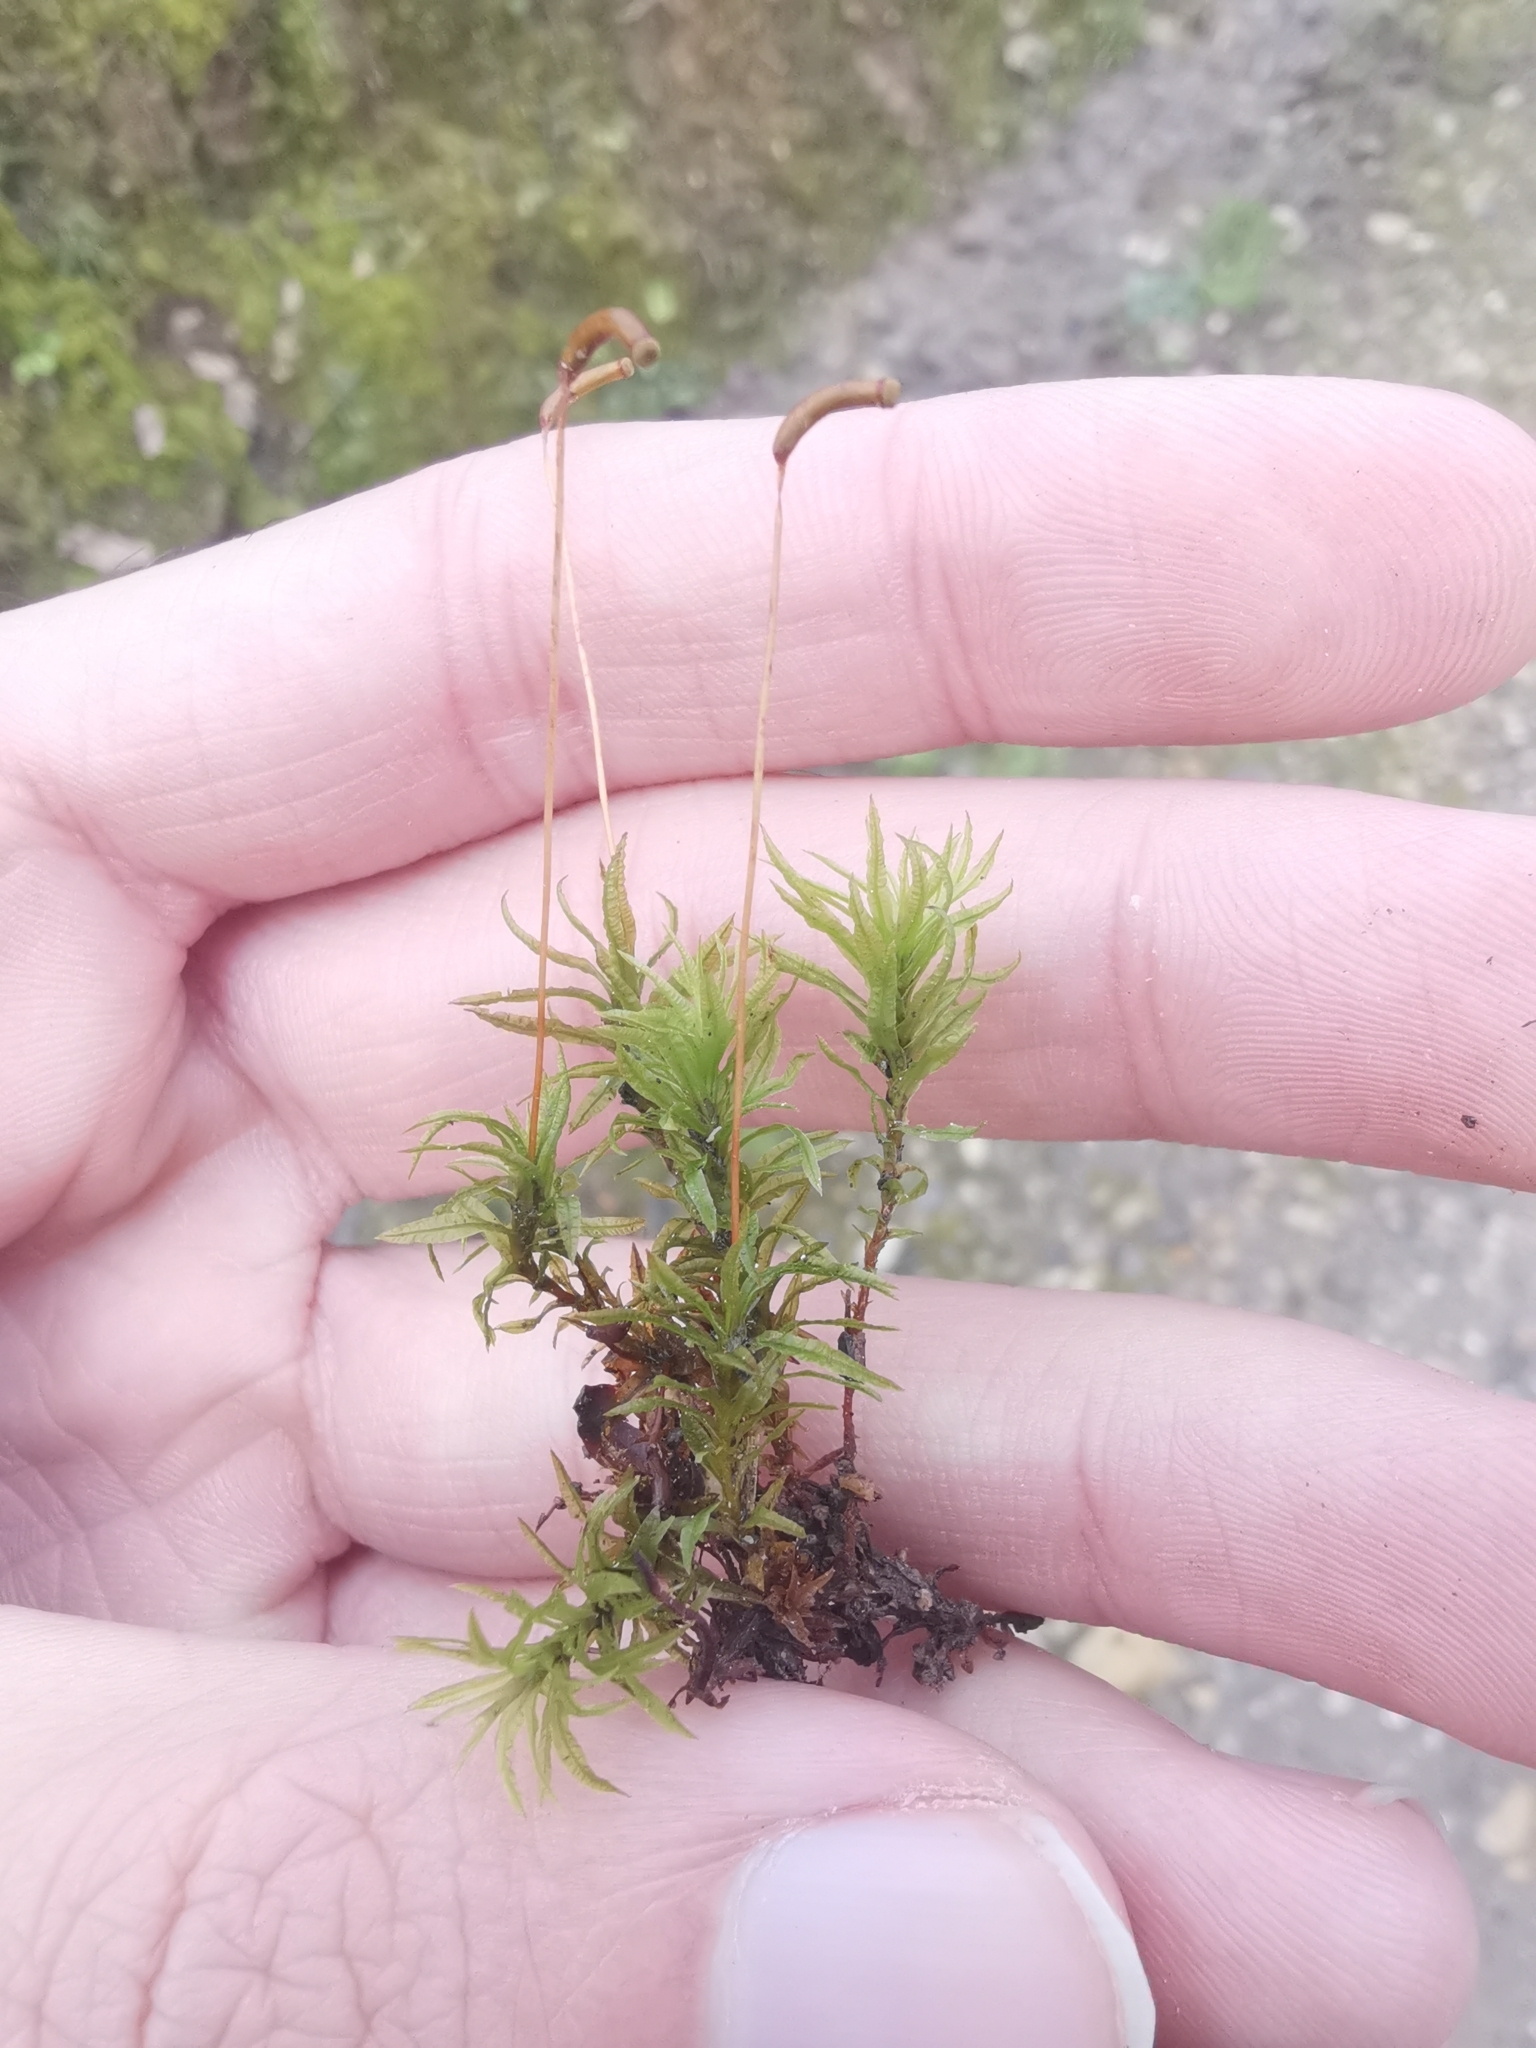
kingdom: Plantae
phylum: Bryophyta
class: Polytrichopsida
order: Polytrichales
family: Polytrichaceae
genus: Atrichum
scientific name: Atrichum undulatum
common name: Common smoothcap
